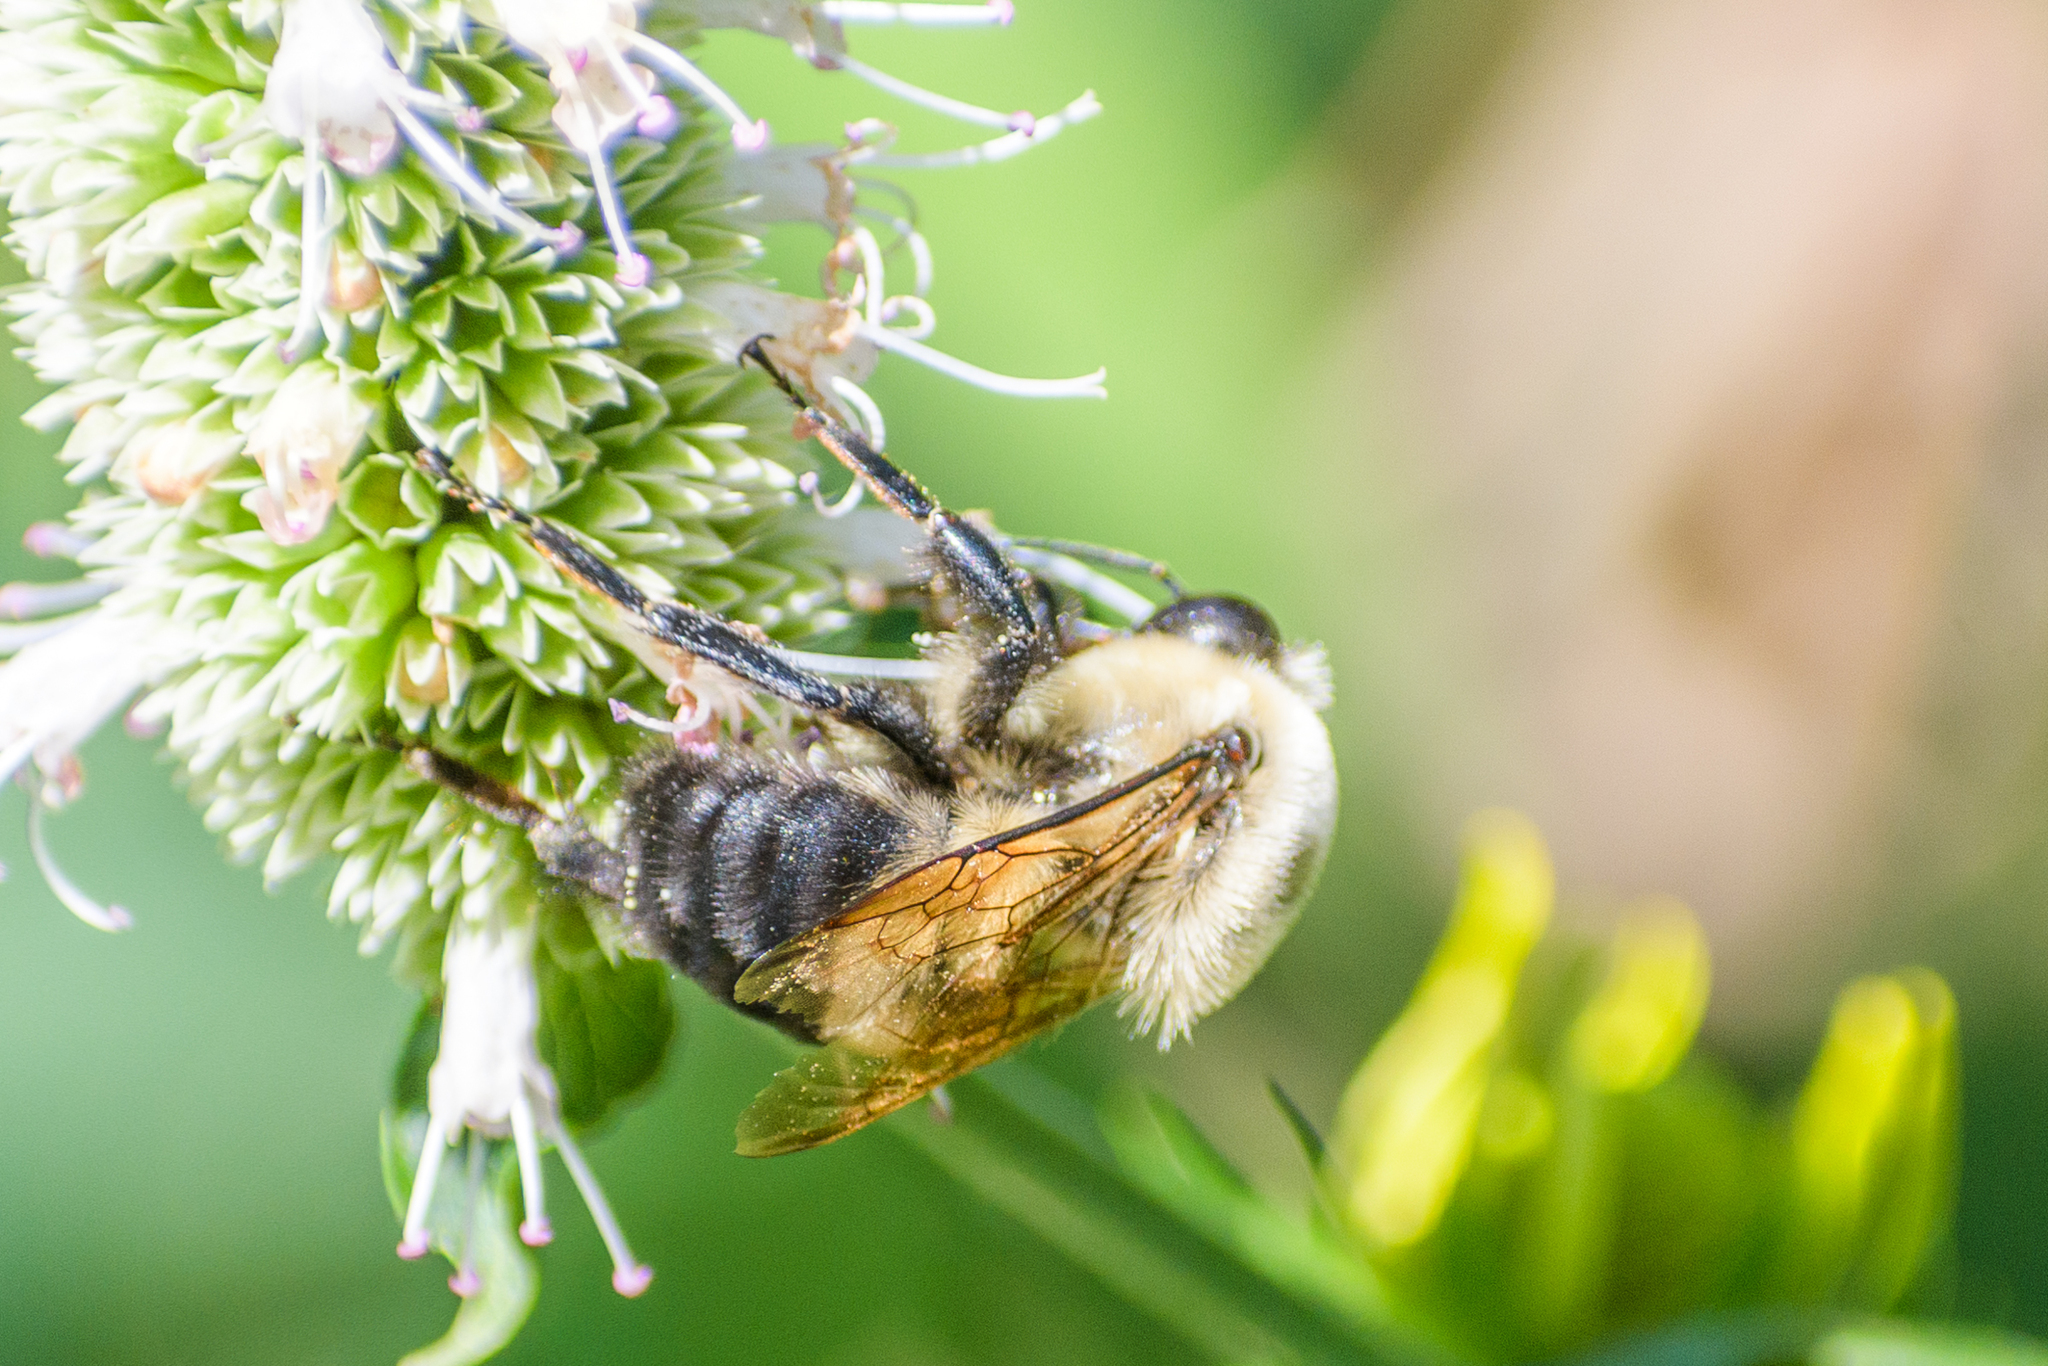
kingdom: Animalia
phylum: Arthropoda
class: Insecta
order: Hymenoptera
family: Apidae
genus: Bombus
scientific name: Bombus griseocollis
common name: Brown-belted bumble bee
